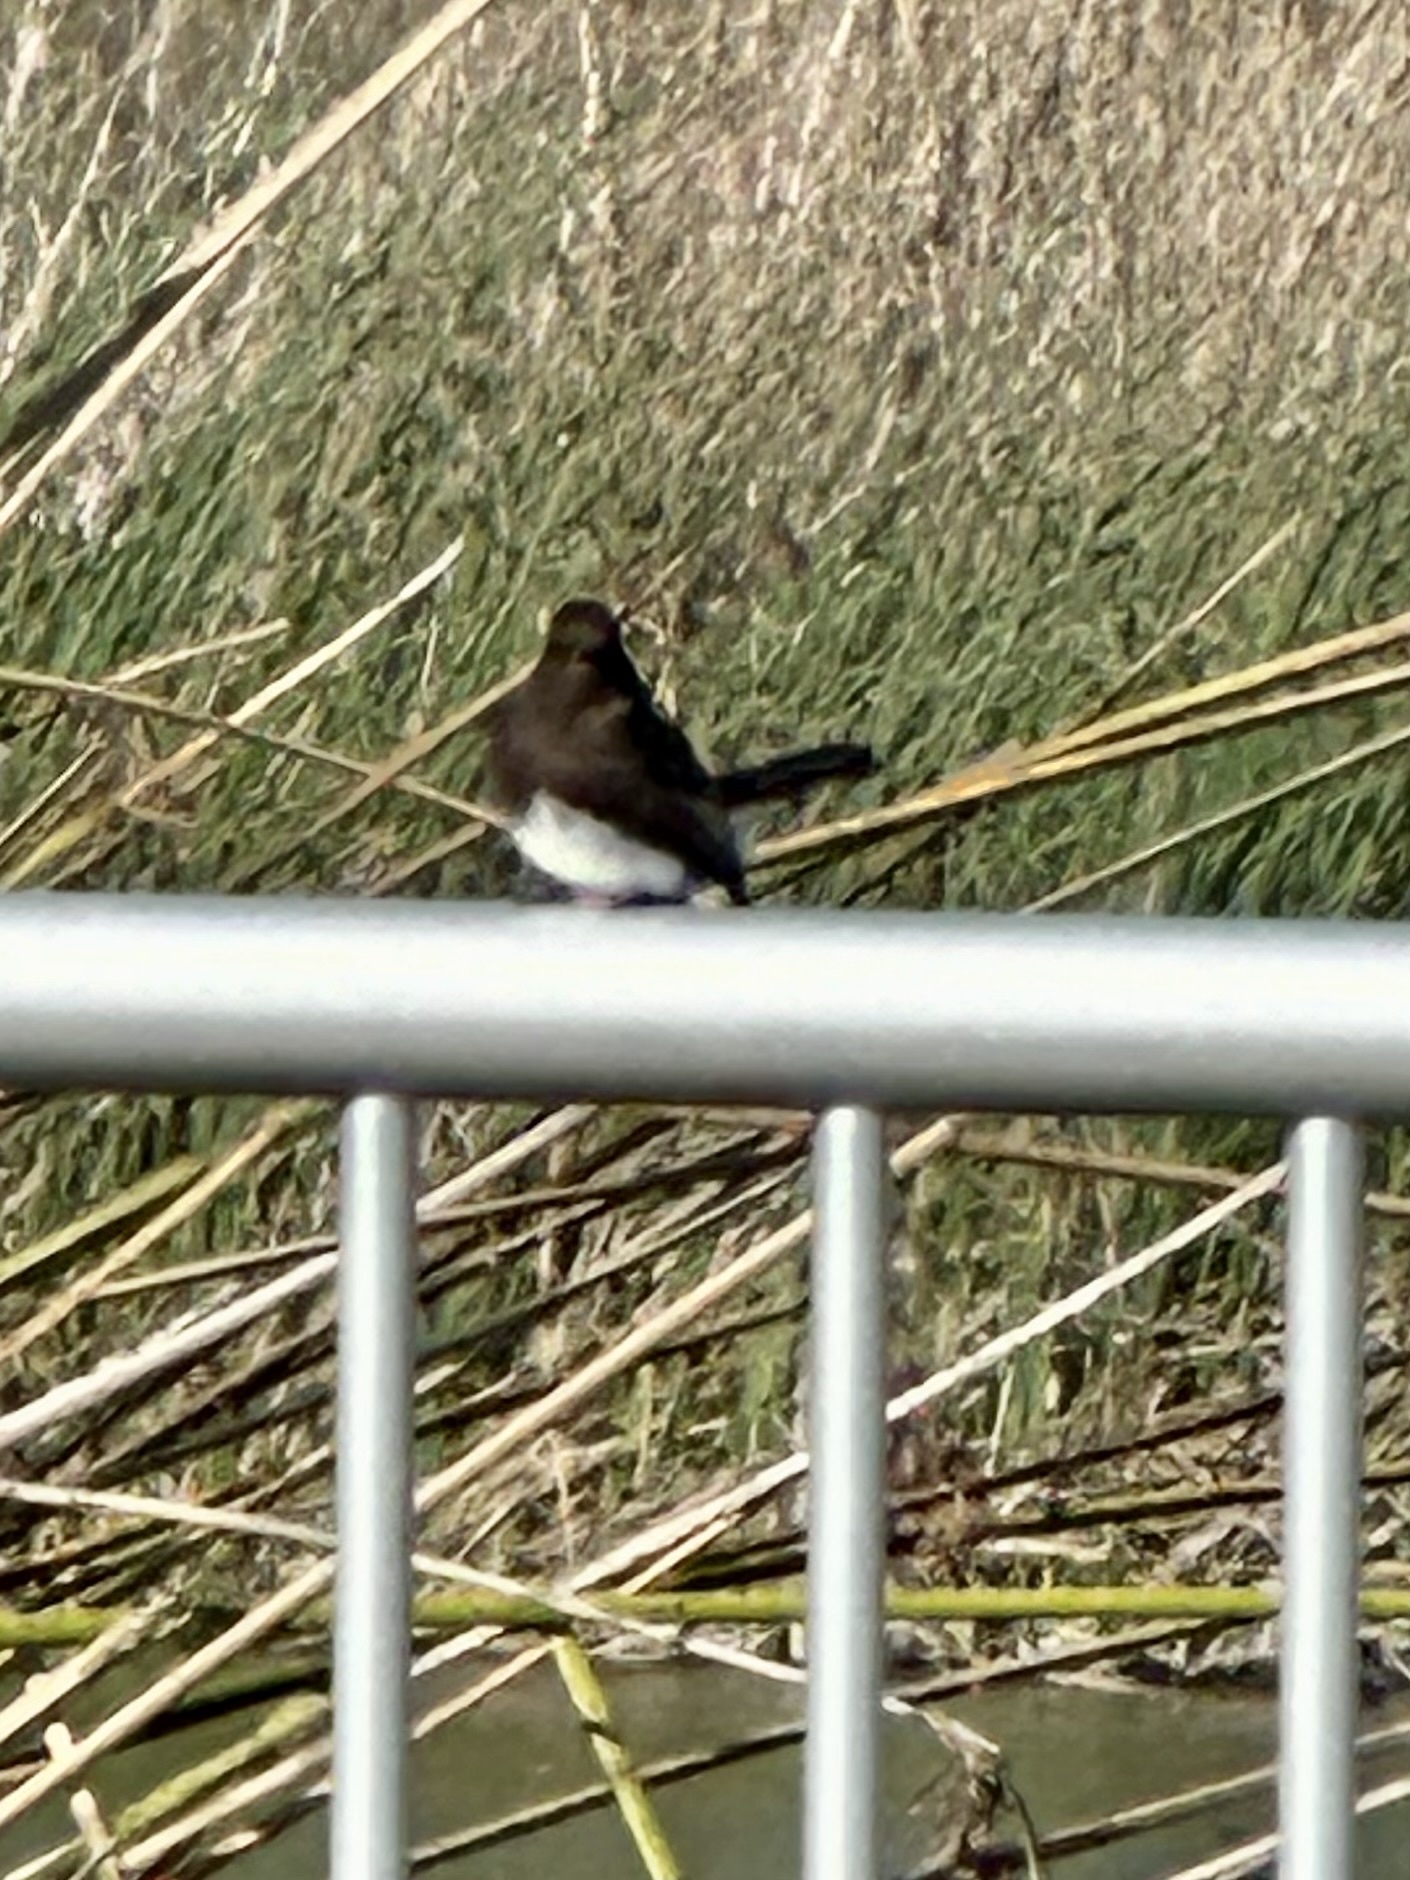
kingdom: Animalia
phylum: Chordata
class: Aves
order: Passeriformes
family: Tyrannidae
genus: Sayornis
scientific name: Sayornis nigricans
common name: Black phoebe
